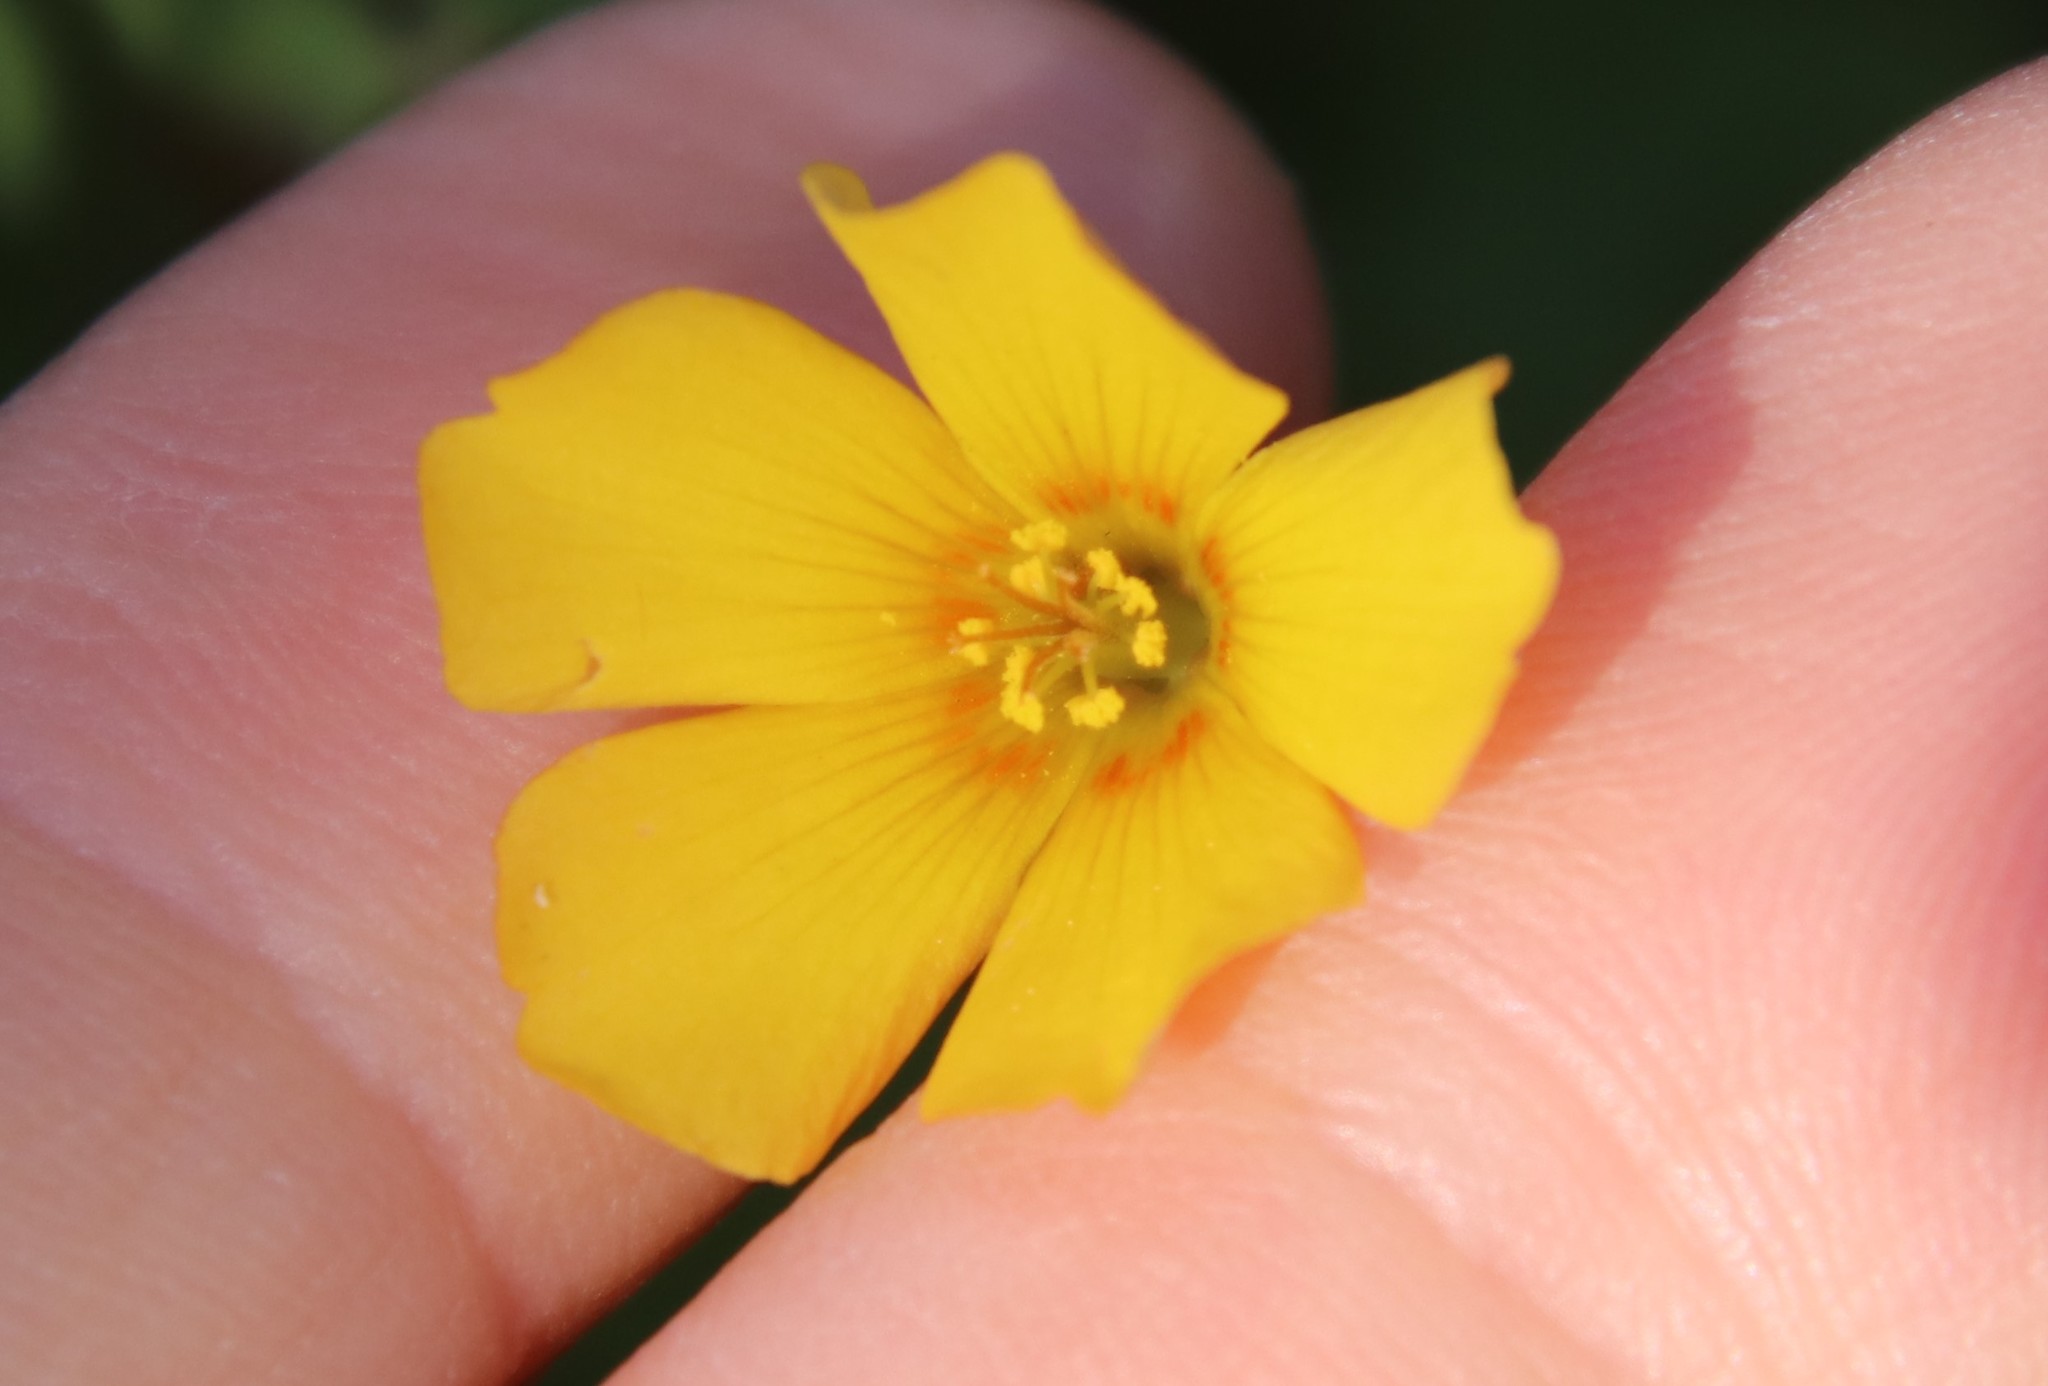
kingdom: Plantae
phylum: Tracheophyta
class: Magnoliopsida
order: Oxalidales
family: Oxalidaceae
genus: Oxalis
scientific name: Oxalis californica
